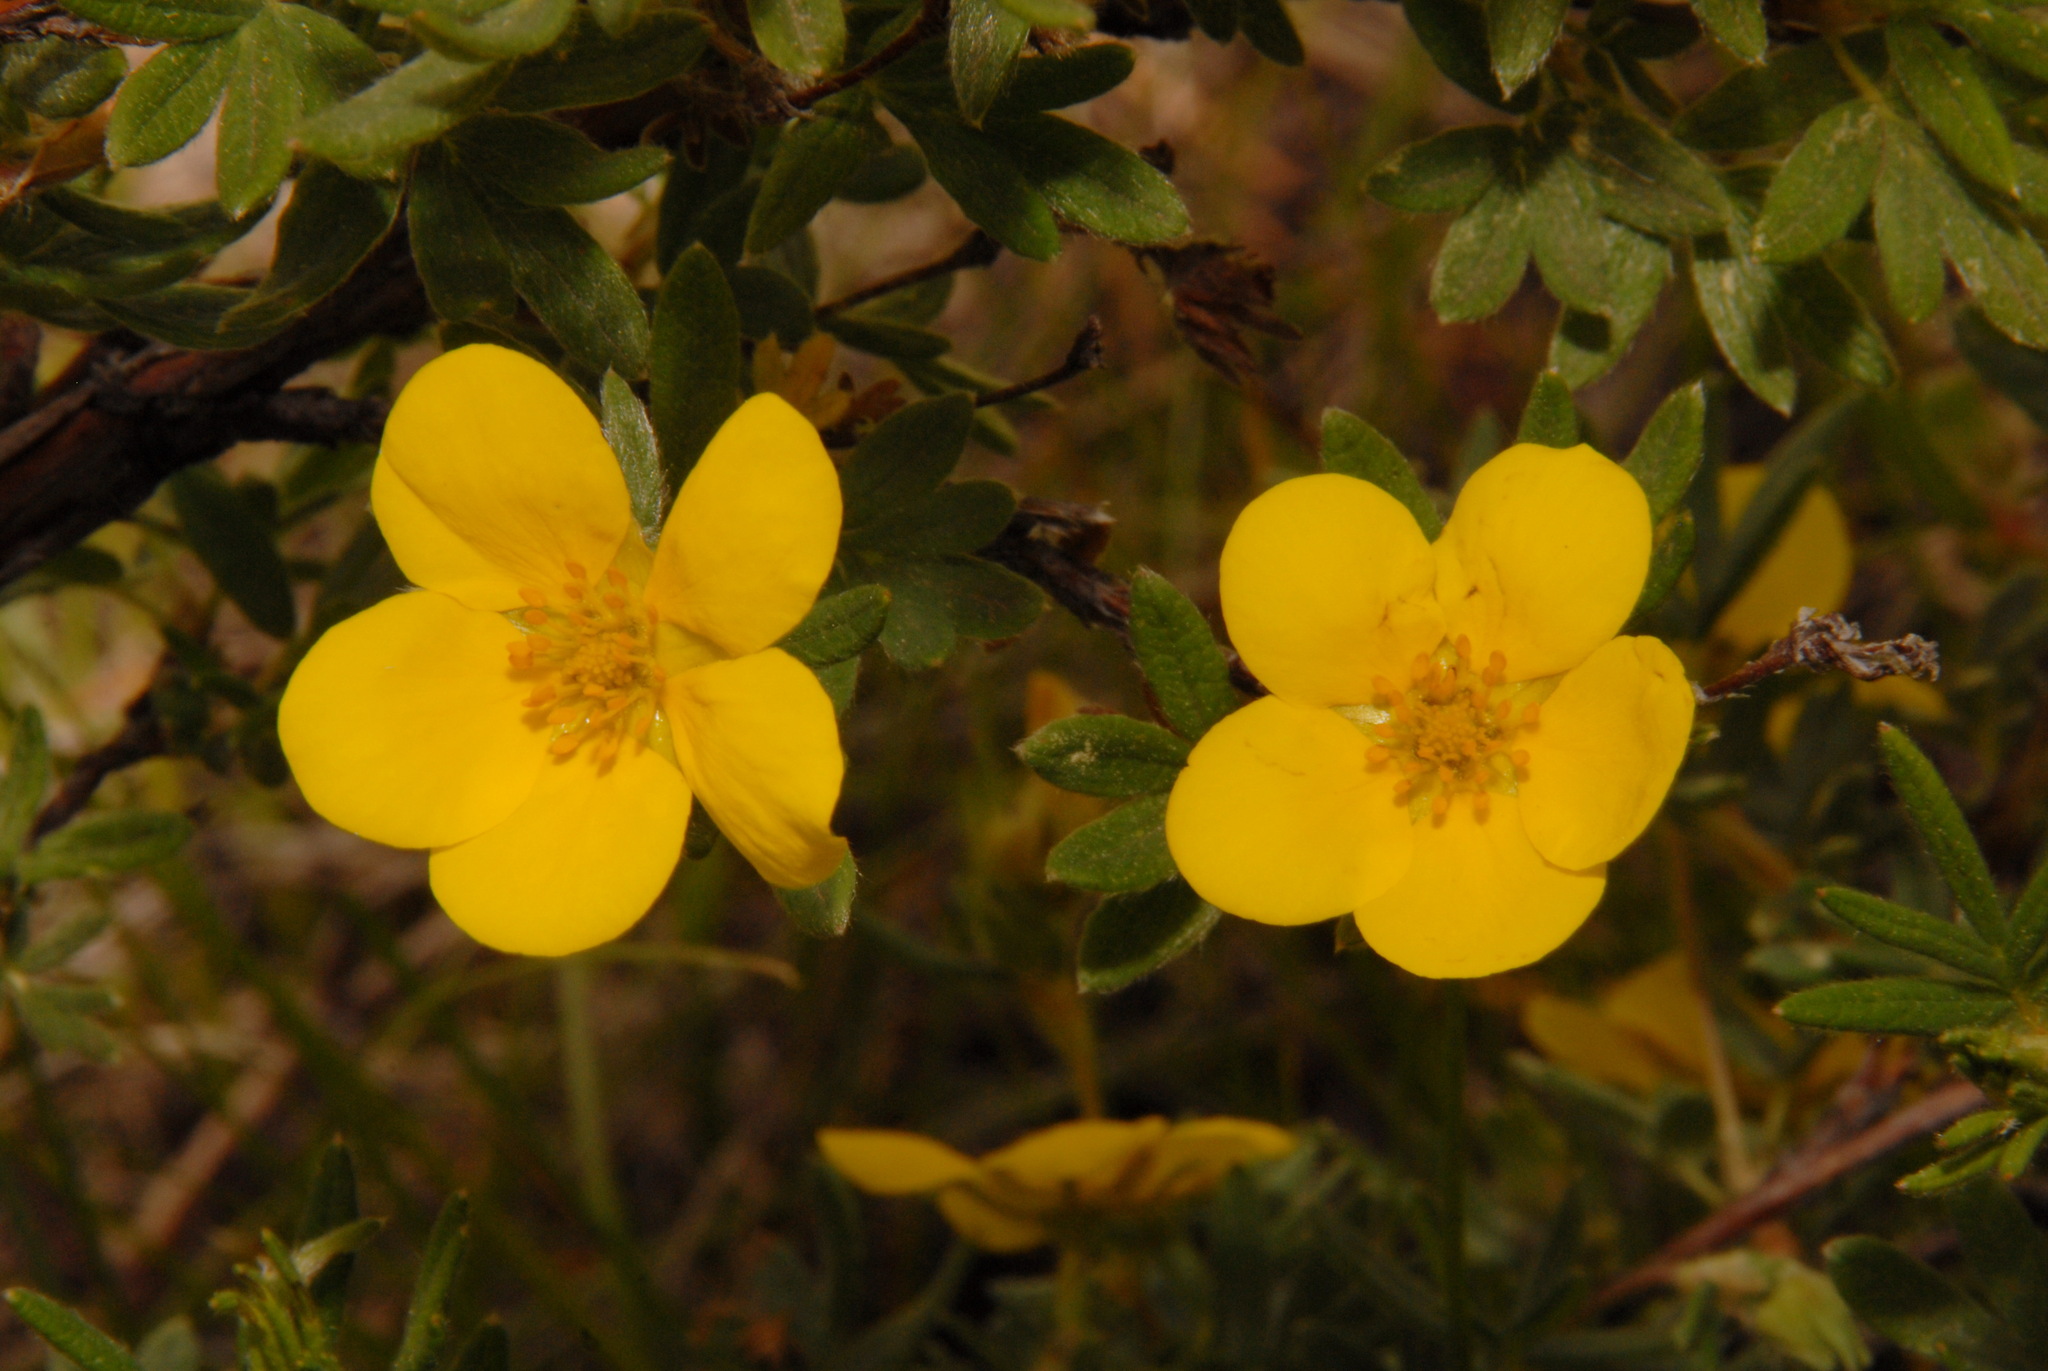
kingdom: Plantae
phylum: Tracheophyta
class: Magnoliopsida
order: Rosales
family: Rosaceae
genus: Dasiphora
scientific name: Dasiphora fruticosa
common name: Shrubby cinquefoil
